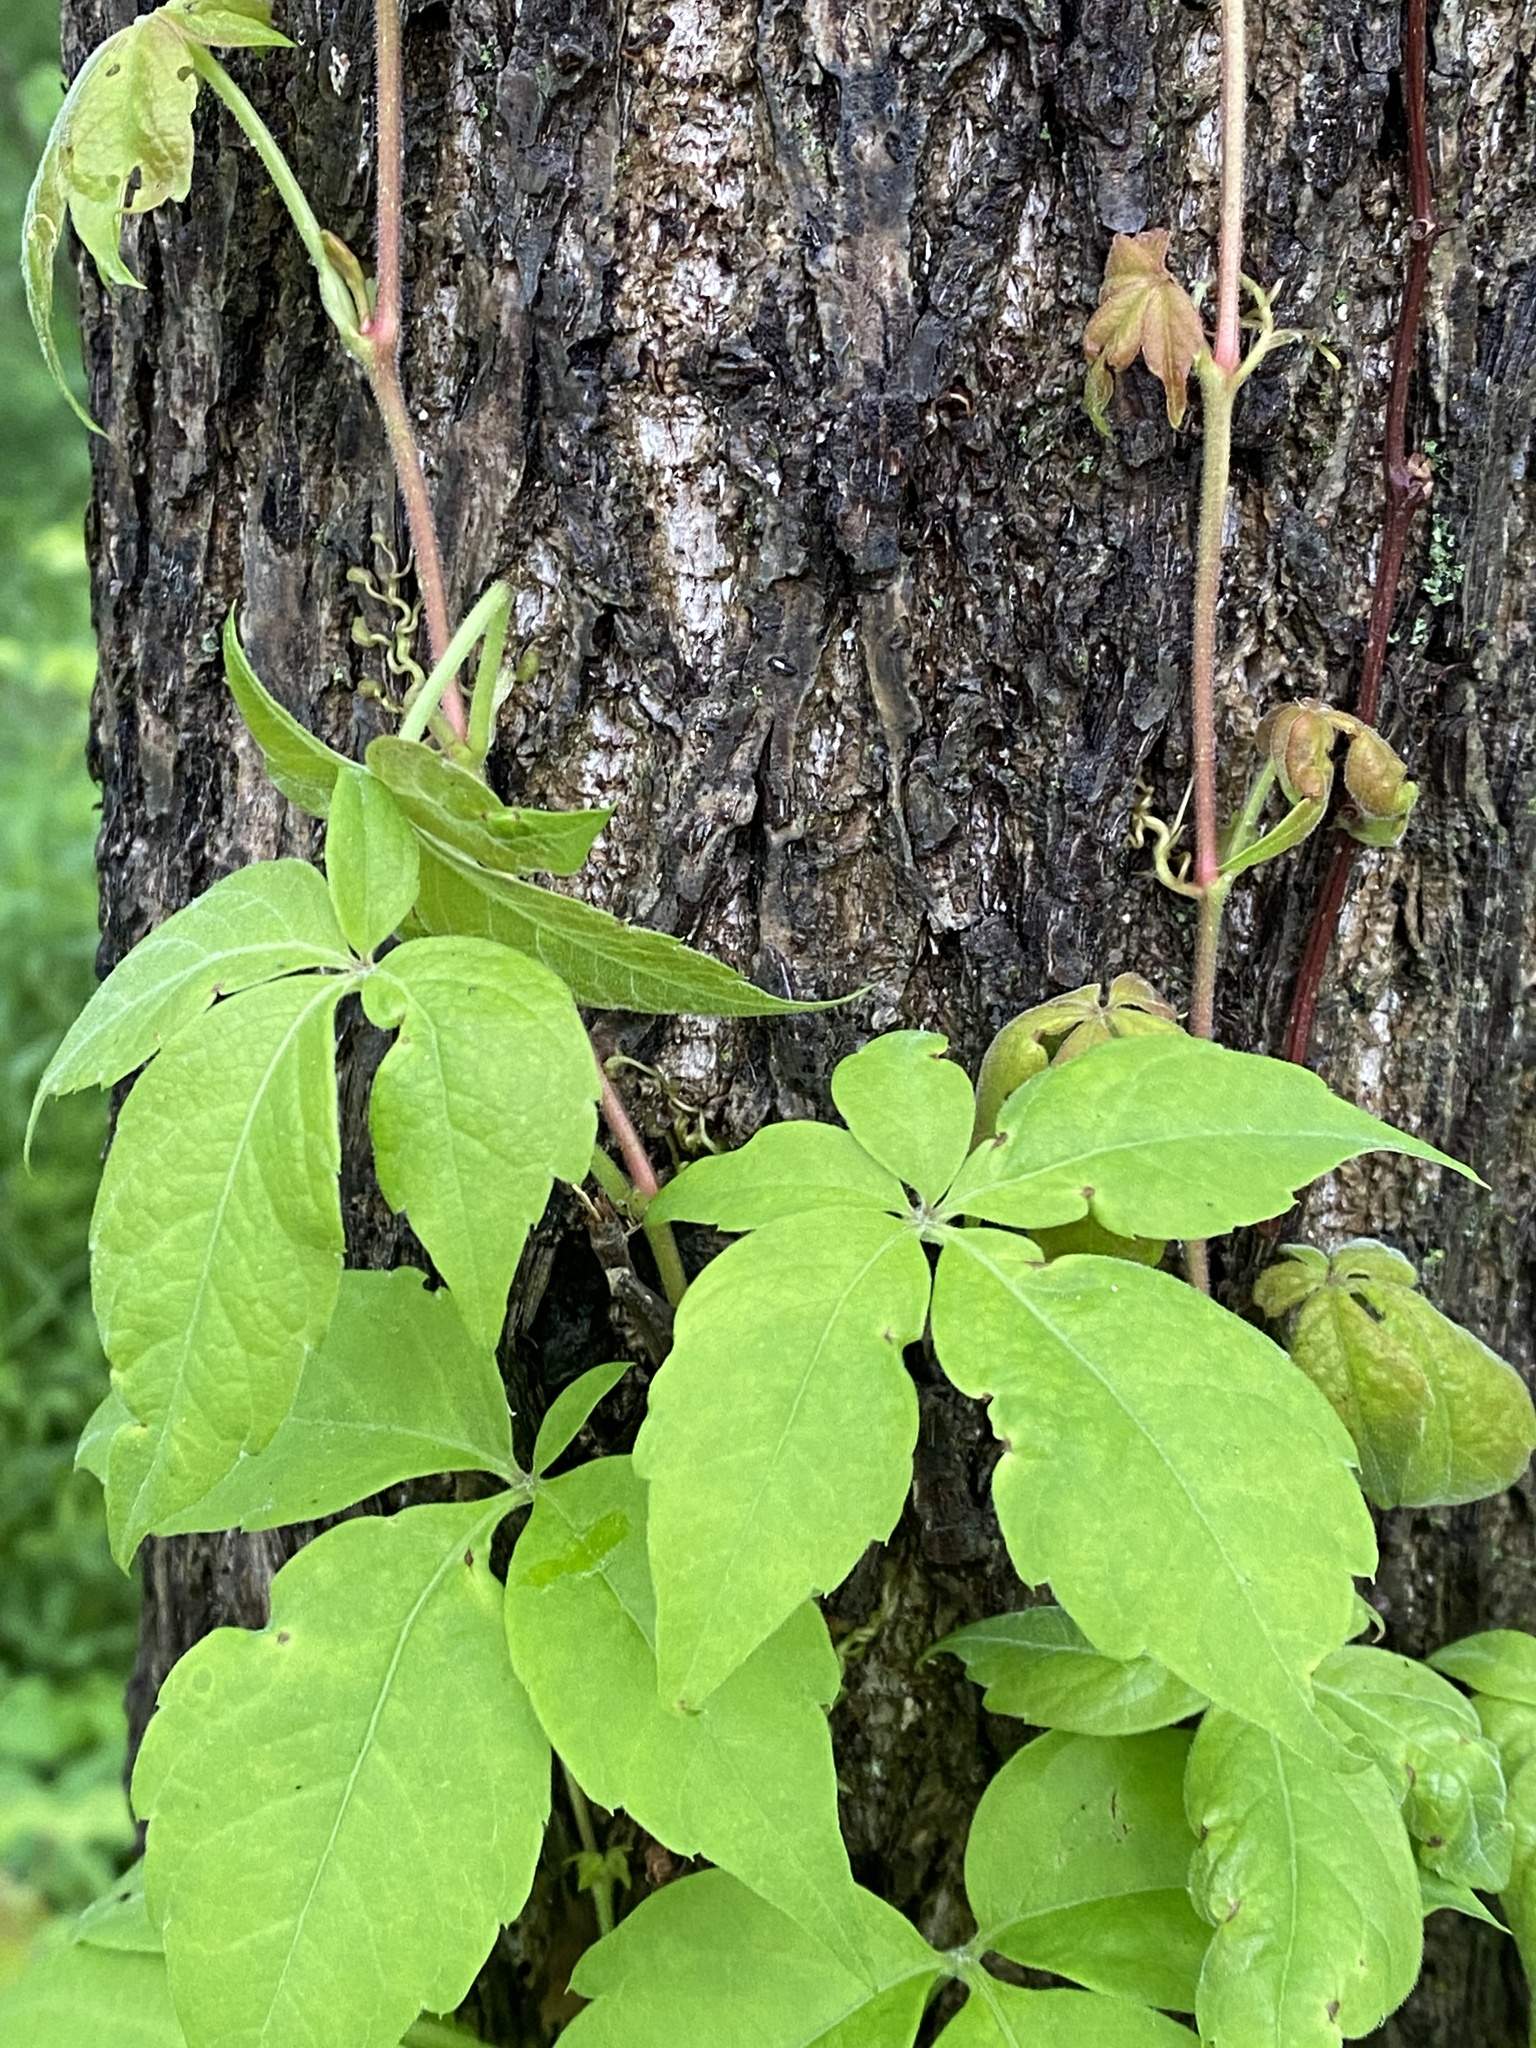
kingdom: Plantae
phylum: Tracheophyta
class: Magnoliopsida
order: Vitales
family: Vitaceae
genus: Parthenocissus
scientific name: Parthenocissus quinquefolia
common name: Virginia-creeper
